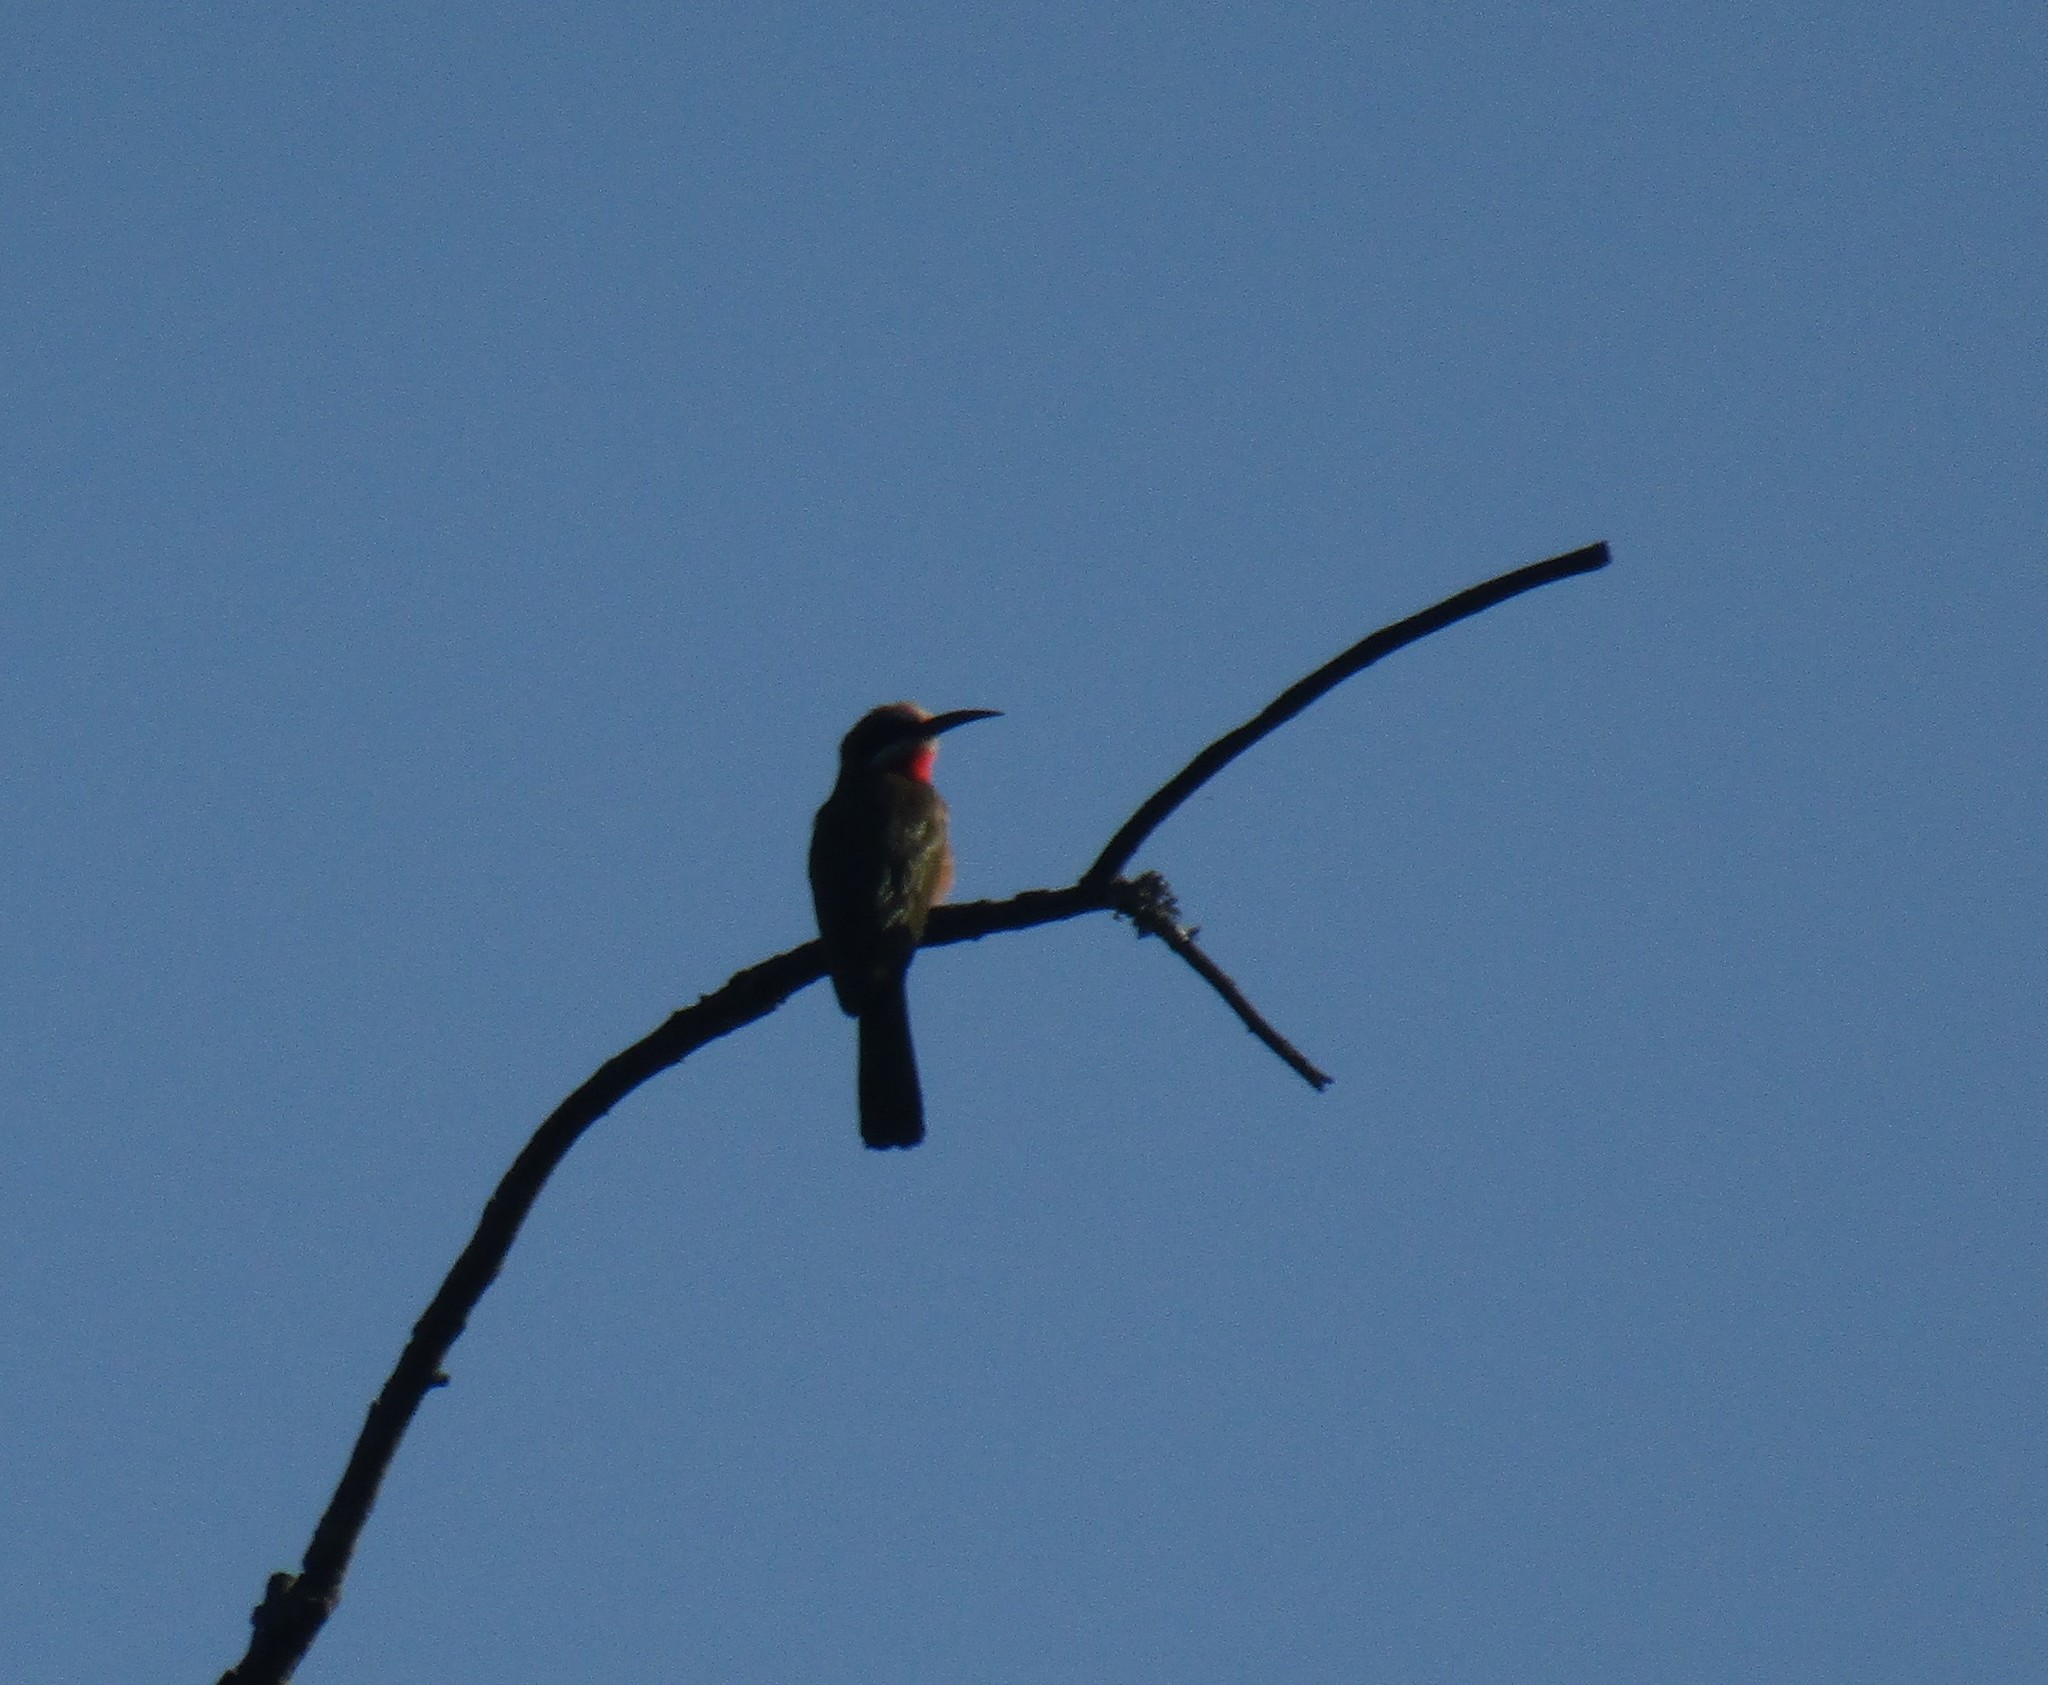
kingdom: Animalia
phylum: Chordata
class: Aves
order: Coraciiformes
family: Meropidae
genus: Merops
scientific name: Merops bullockoides
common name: White-fronted bee-eater
